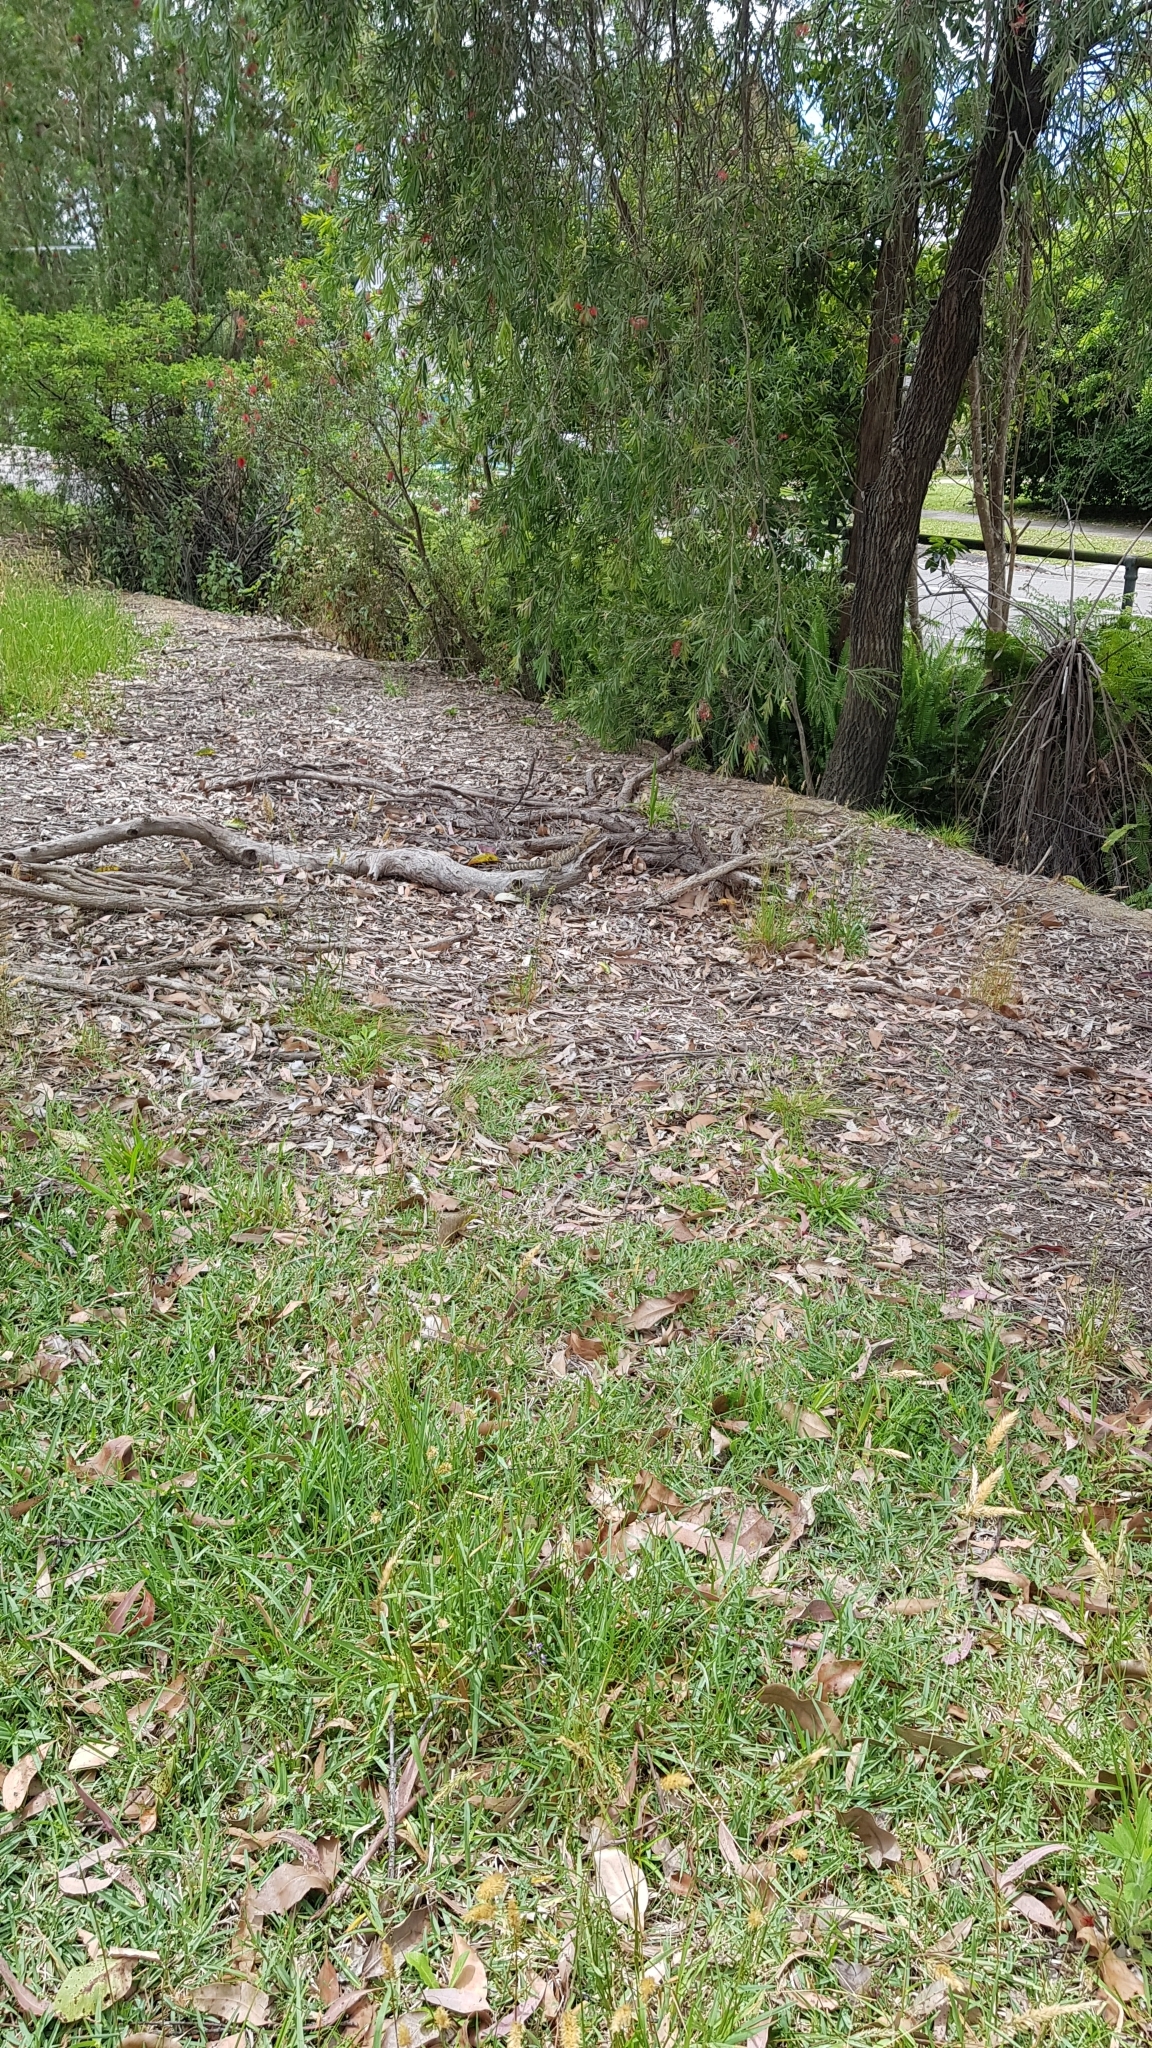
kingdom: Animalia
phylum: Chordata
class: Squamata
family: Agamidae
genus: Intellagama
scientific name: Intellagama lesueurii
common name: Eastern water dragon
